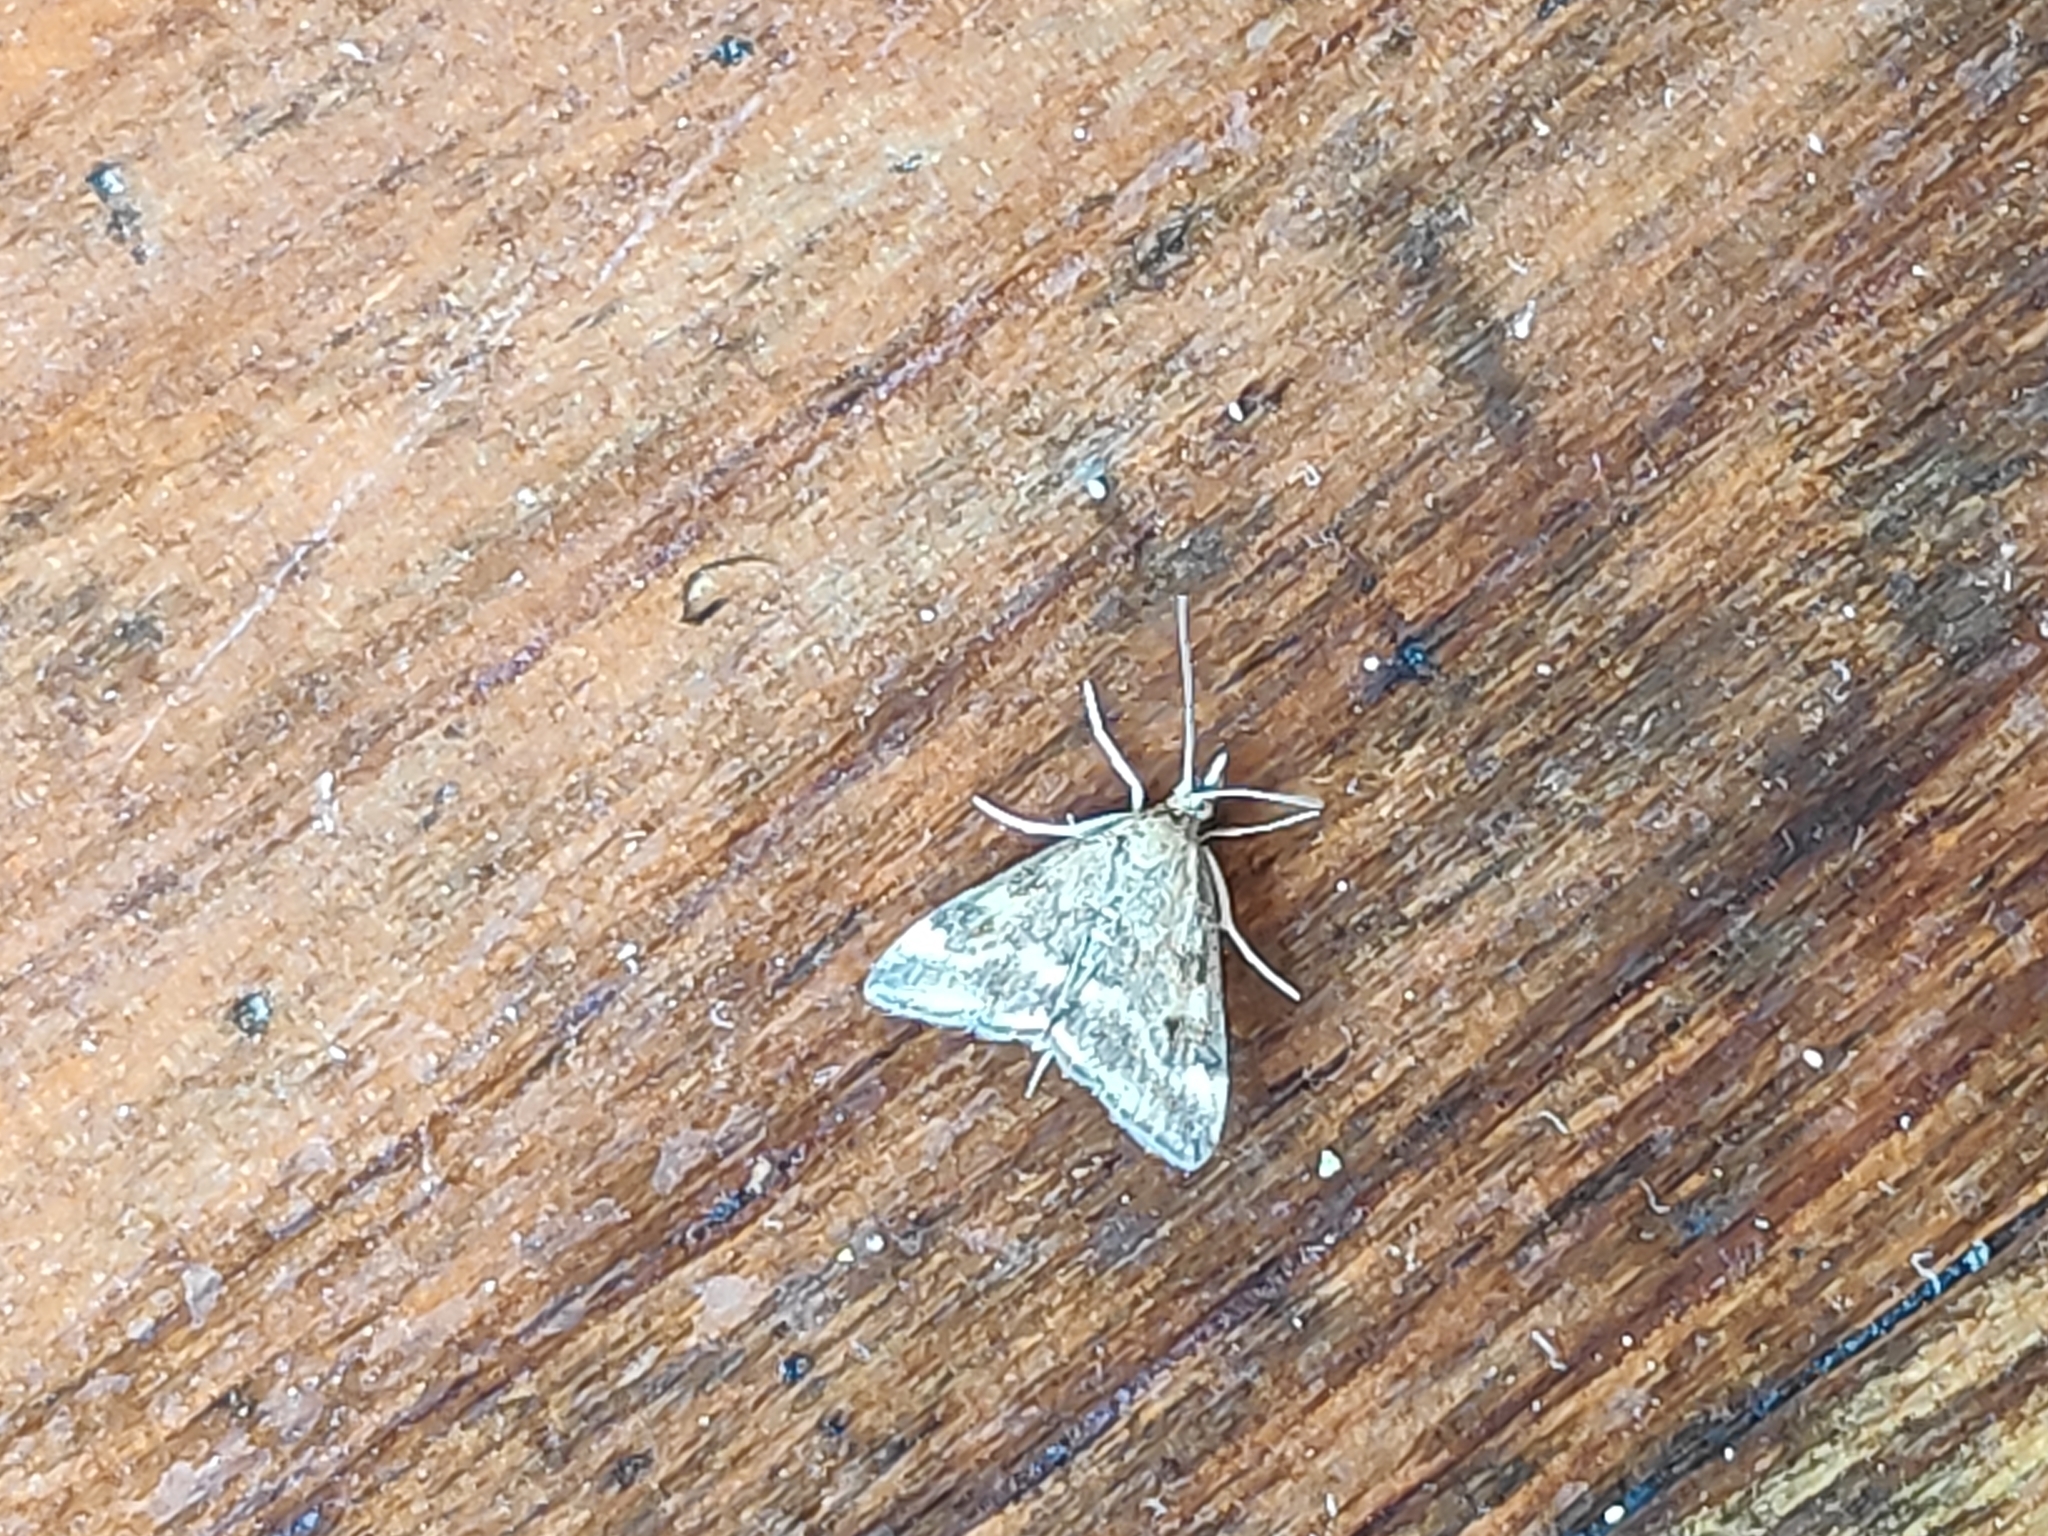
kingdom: Animalia
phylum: Arthropoda
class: Insecta
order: Lepidoptera
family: Crambidae
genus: Pyrausta
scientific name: Pyrausta despicata
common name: Straw-barred pearl
